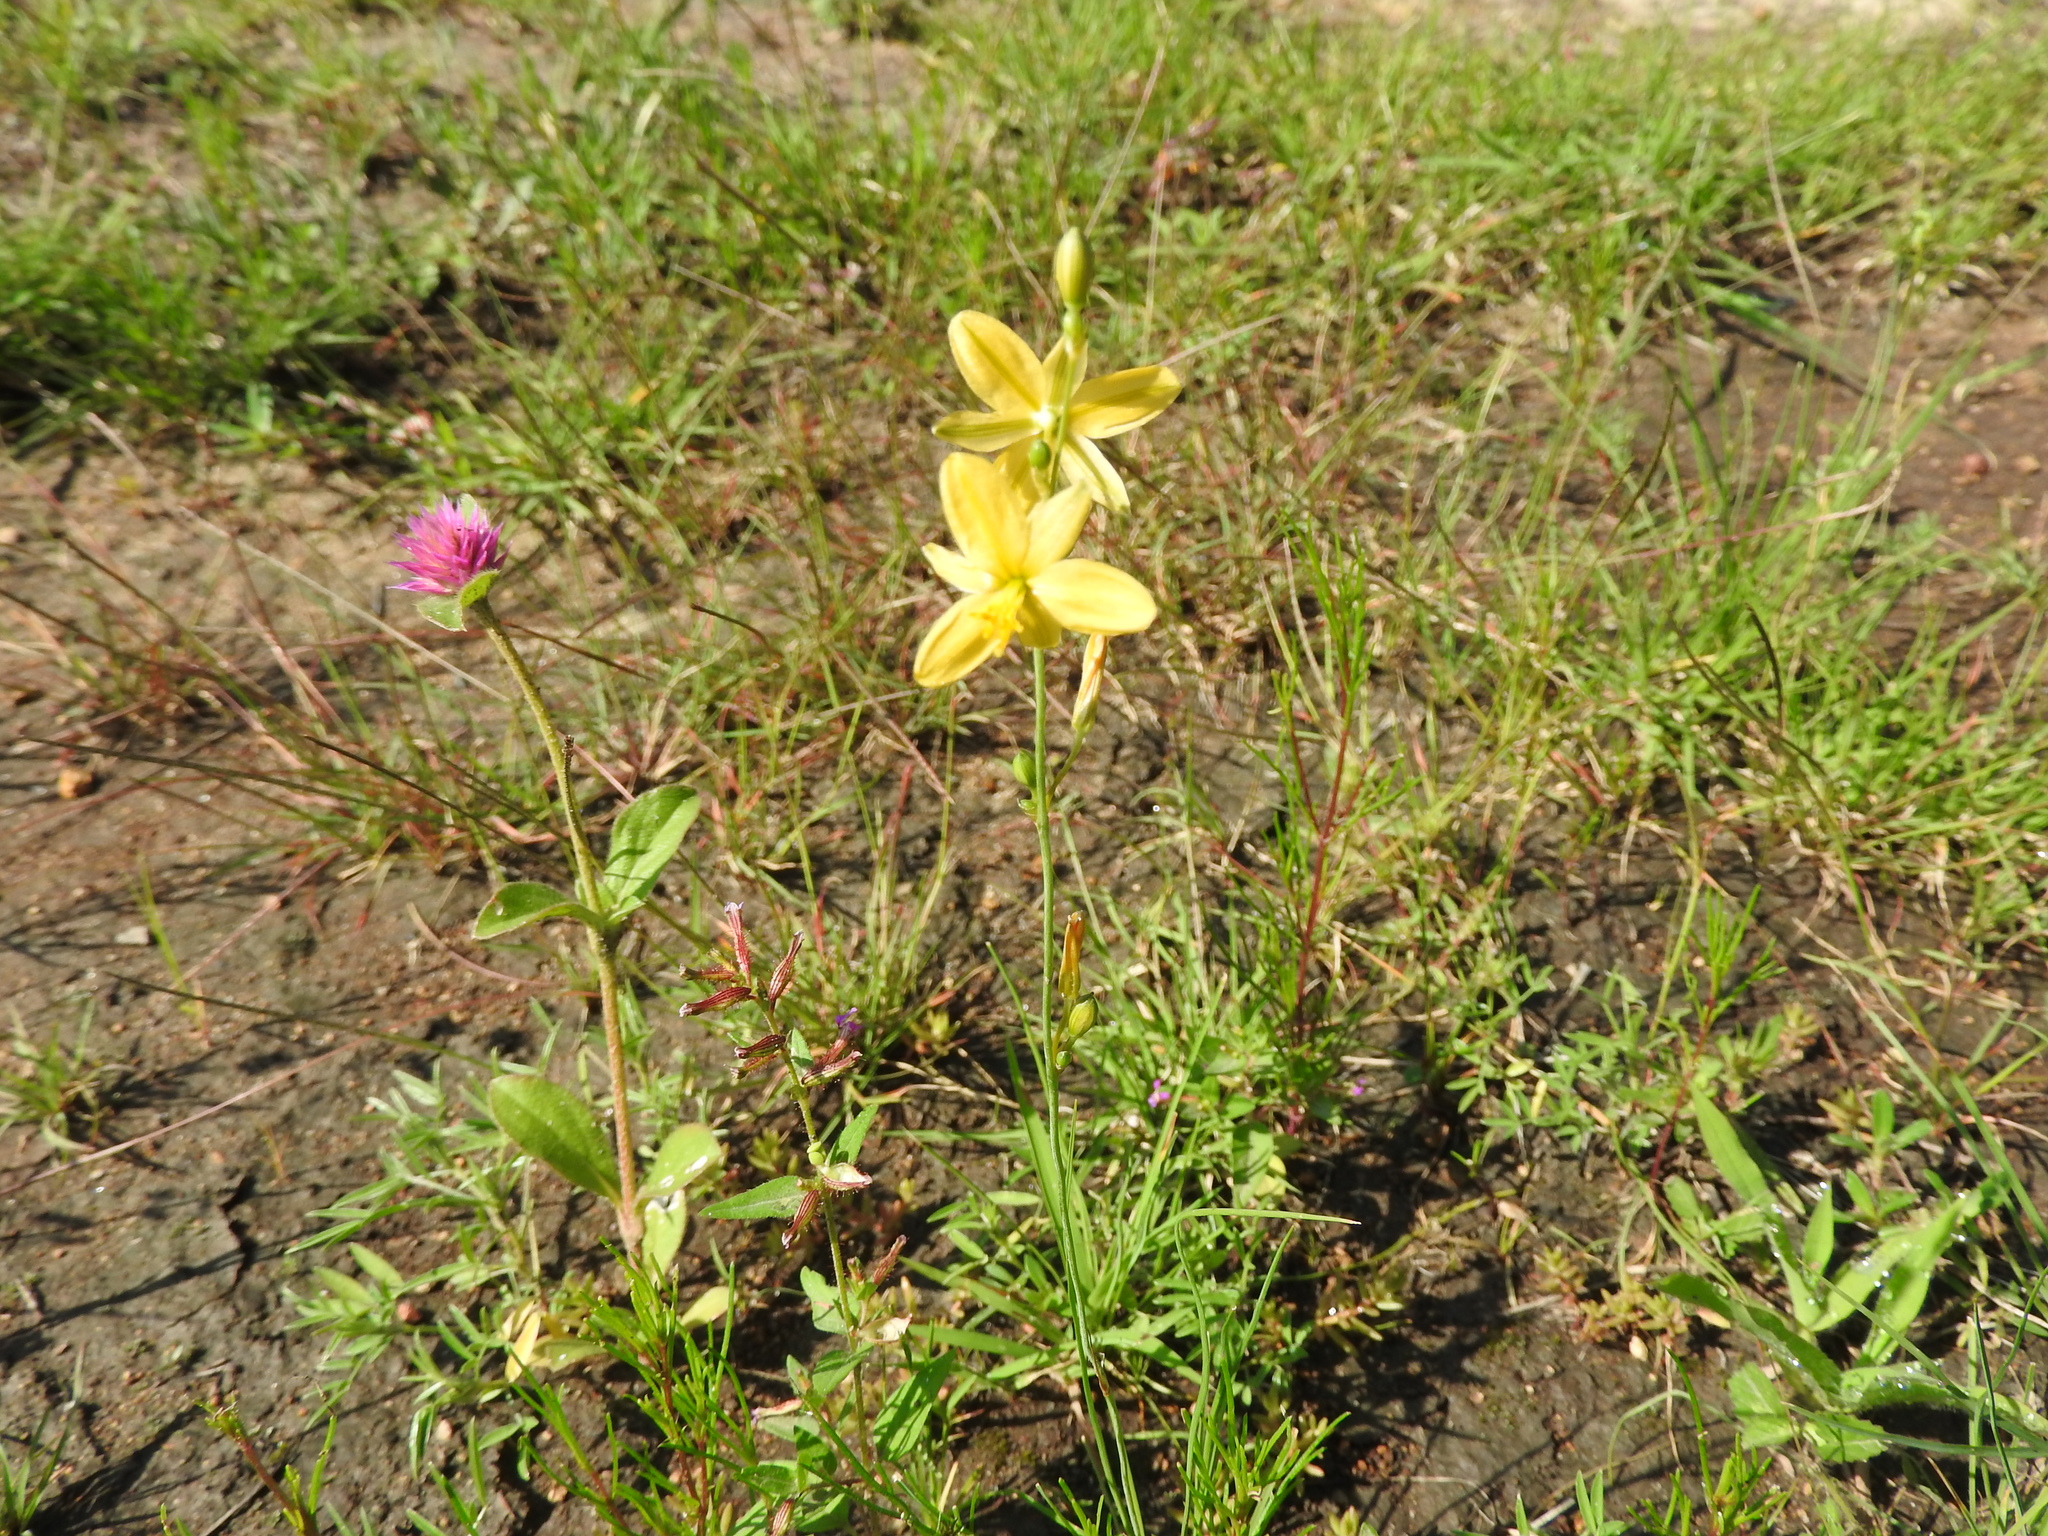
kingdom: Plantae
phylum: Tracheophyta
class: Liliopsida
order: Asparagales
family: Asparagaceae
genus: Echeandia
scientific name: Echeandia flavescens
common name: Amberlily
